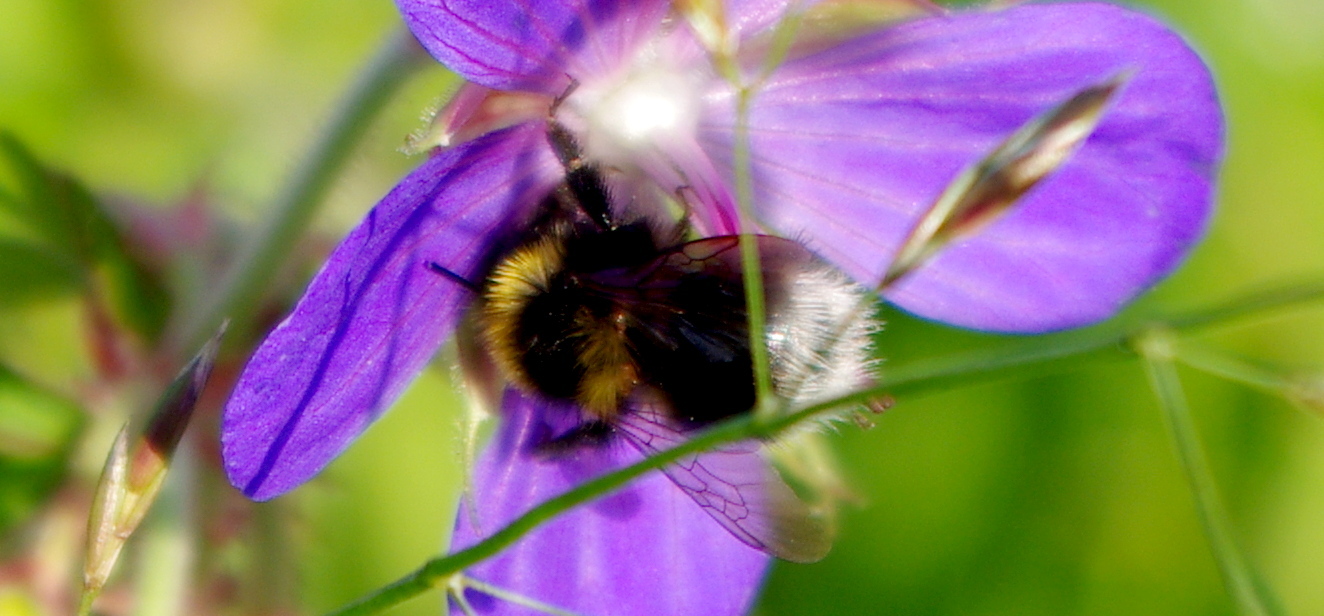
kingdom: Animalia
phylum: Arthropoda
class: Insecta
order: Hymenoptera
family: Apidae
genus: Bombus
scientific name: Bombus jonellus
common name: Heath humble-bee
